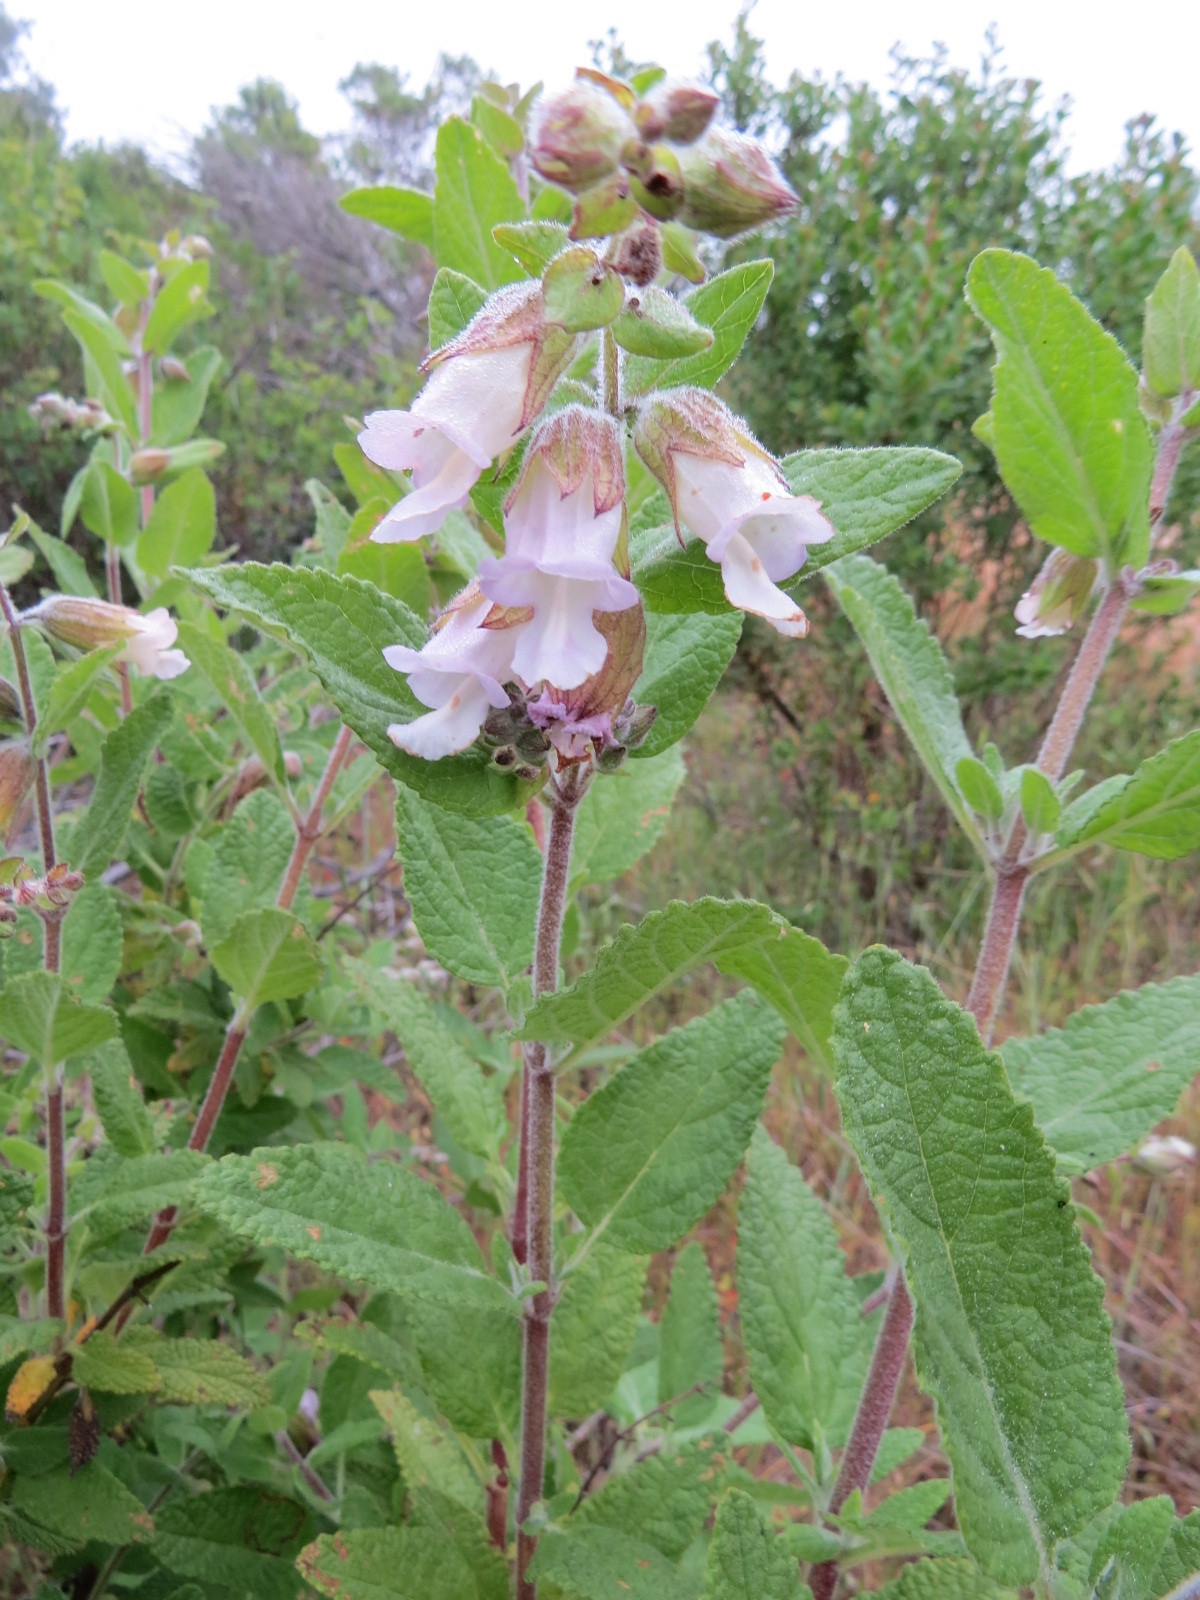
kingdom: Plantae
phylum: Tracheophyta
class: Magnoliopsida
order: Lamiales
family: Lamiaceae
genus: Lepechinia
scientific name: Lepechinia calycina
